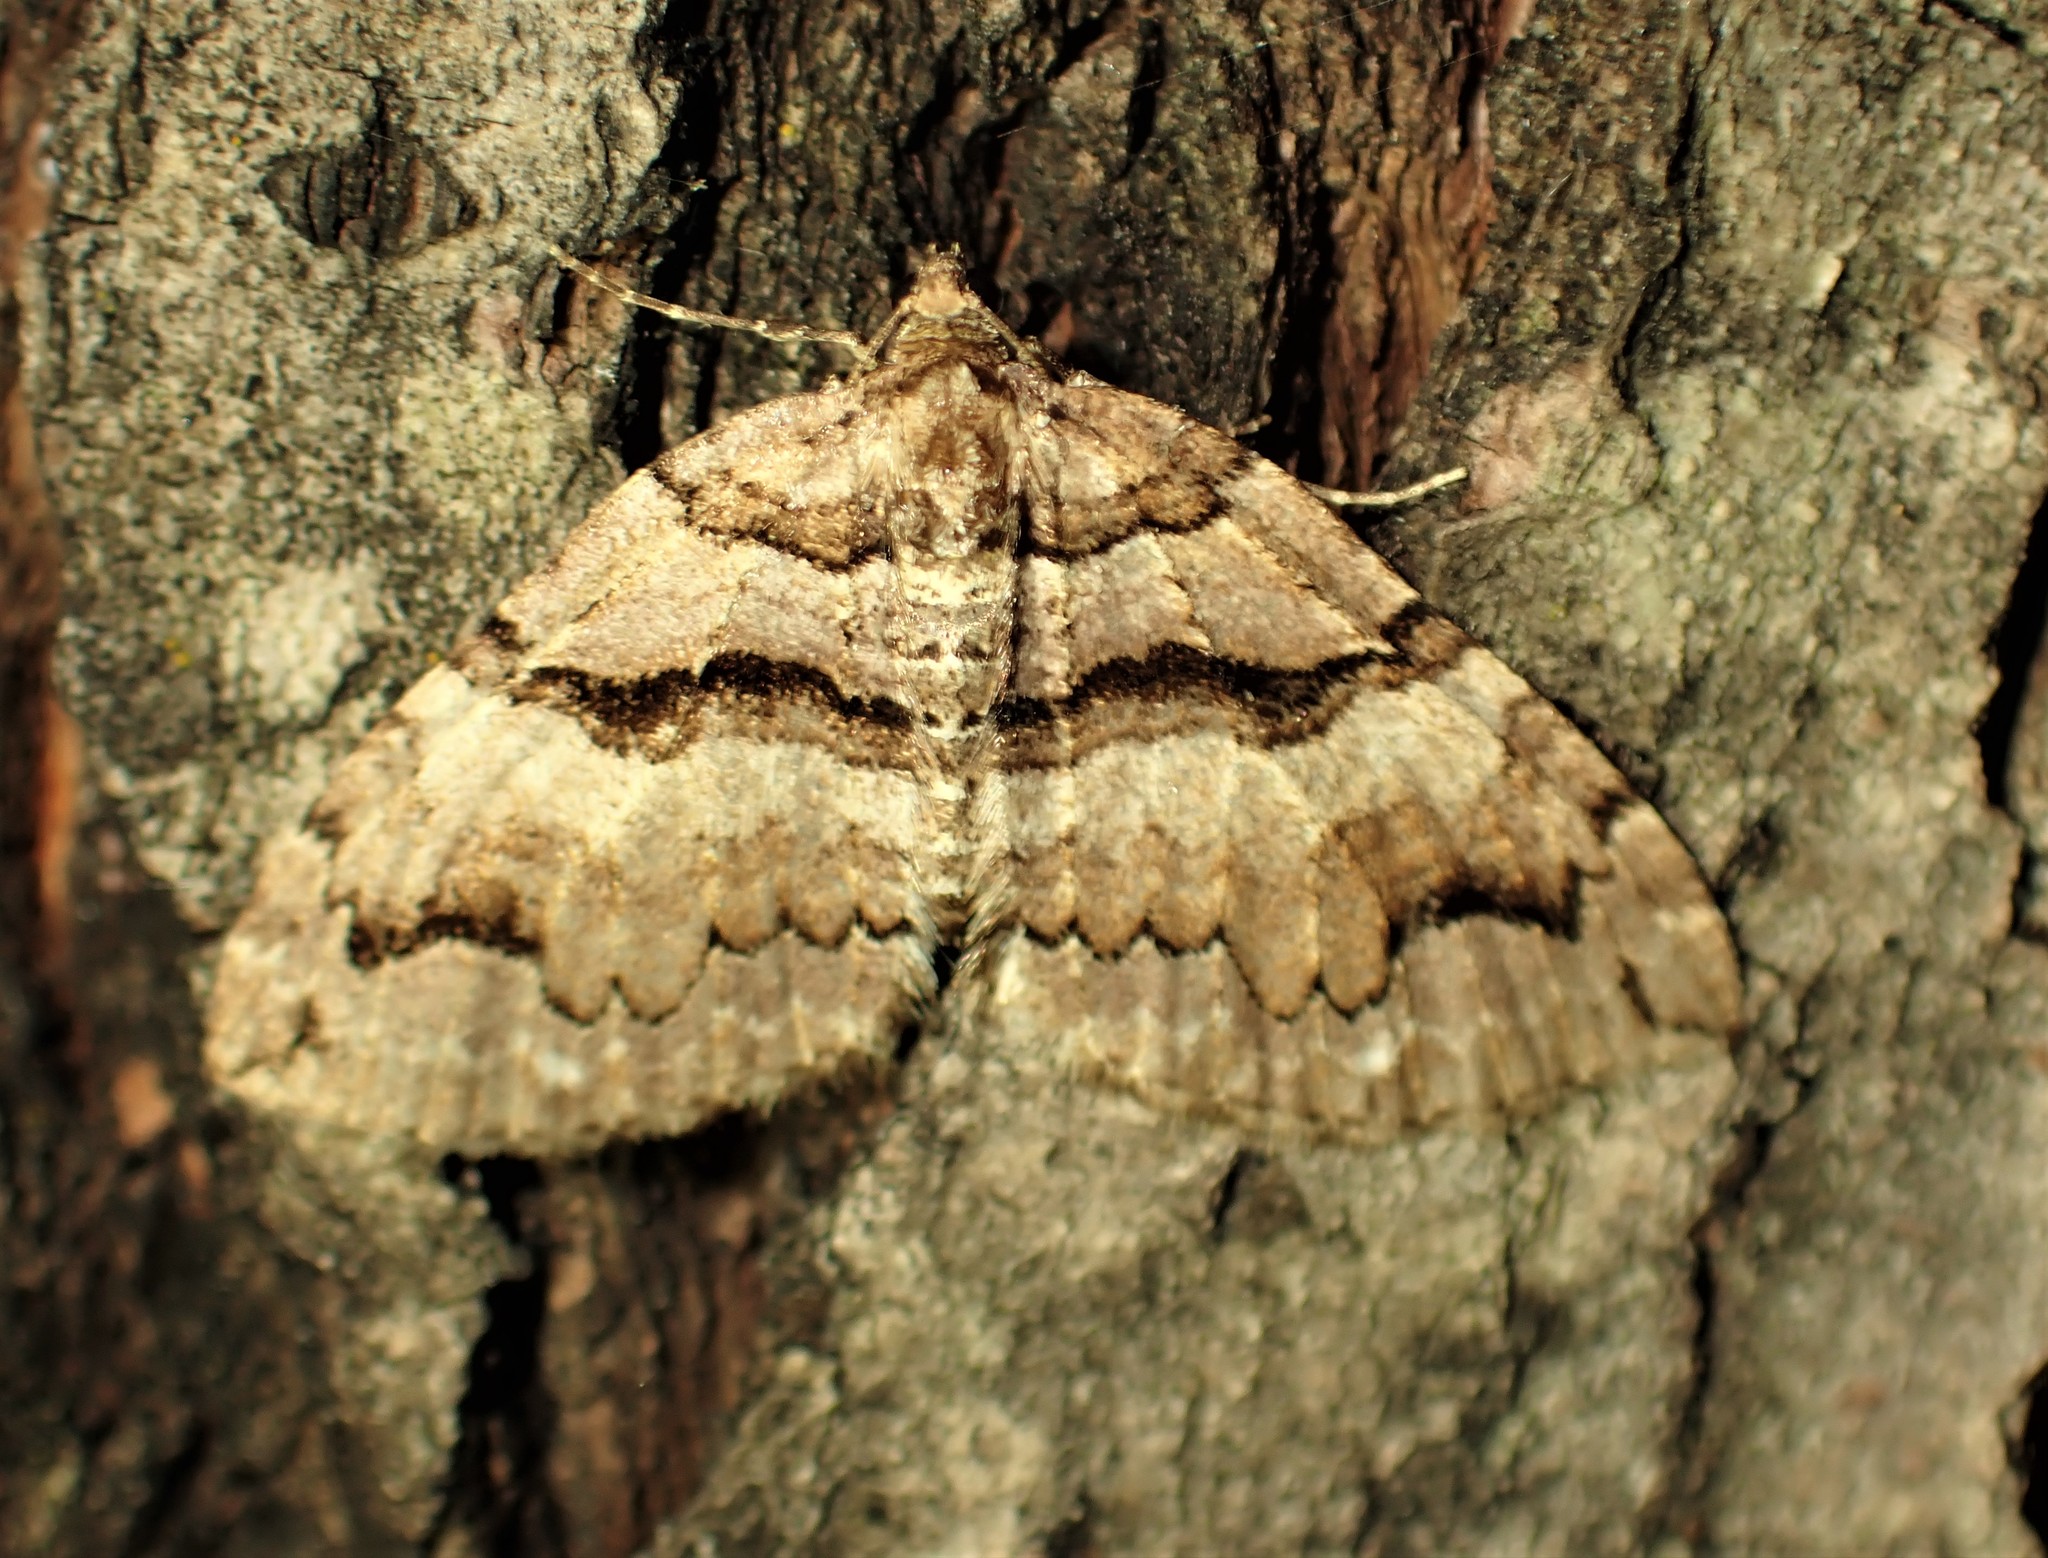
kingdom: Animalia
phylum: Arthropoda
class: Insecta
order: Lepidoptera
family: Geometridae
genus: Anticlea
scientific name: Anticlea vasiliata
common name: Variable carpet
